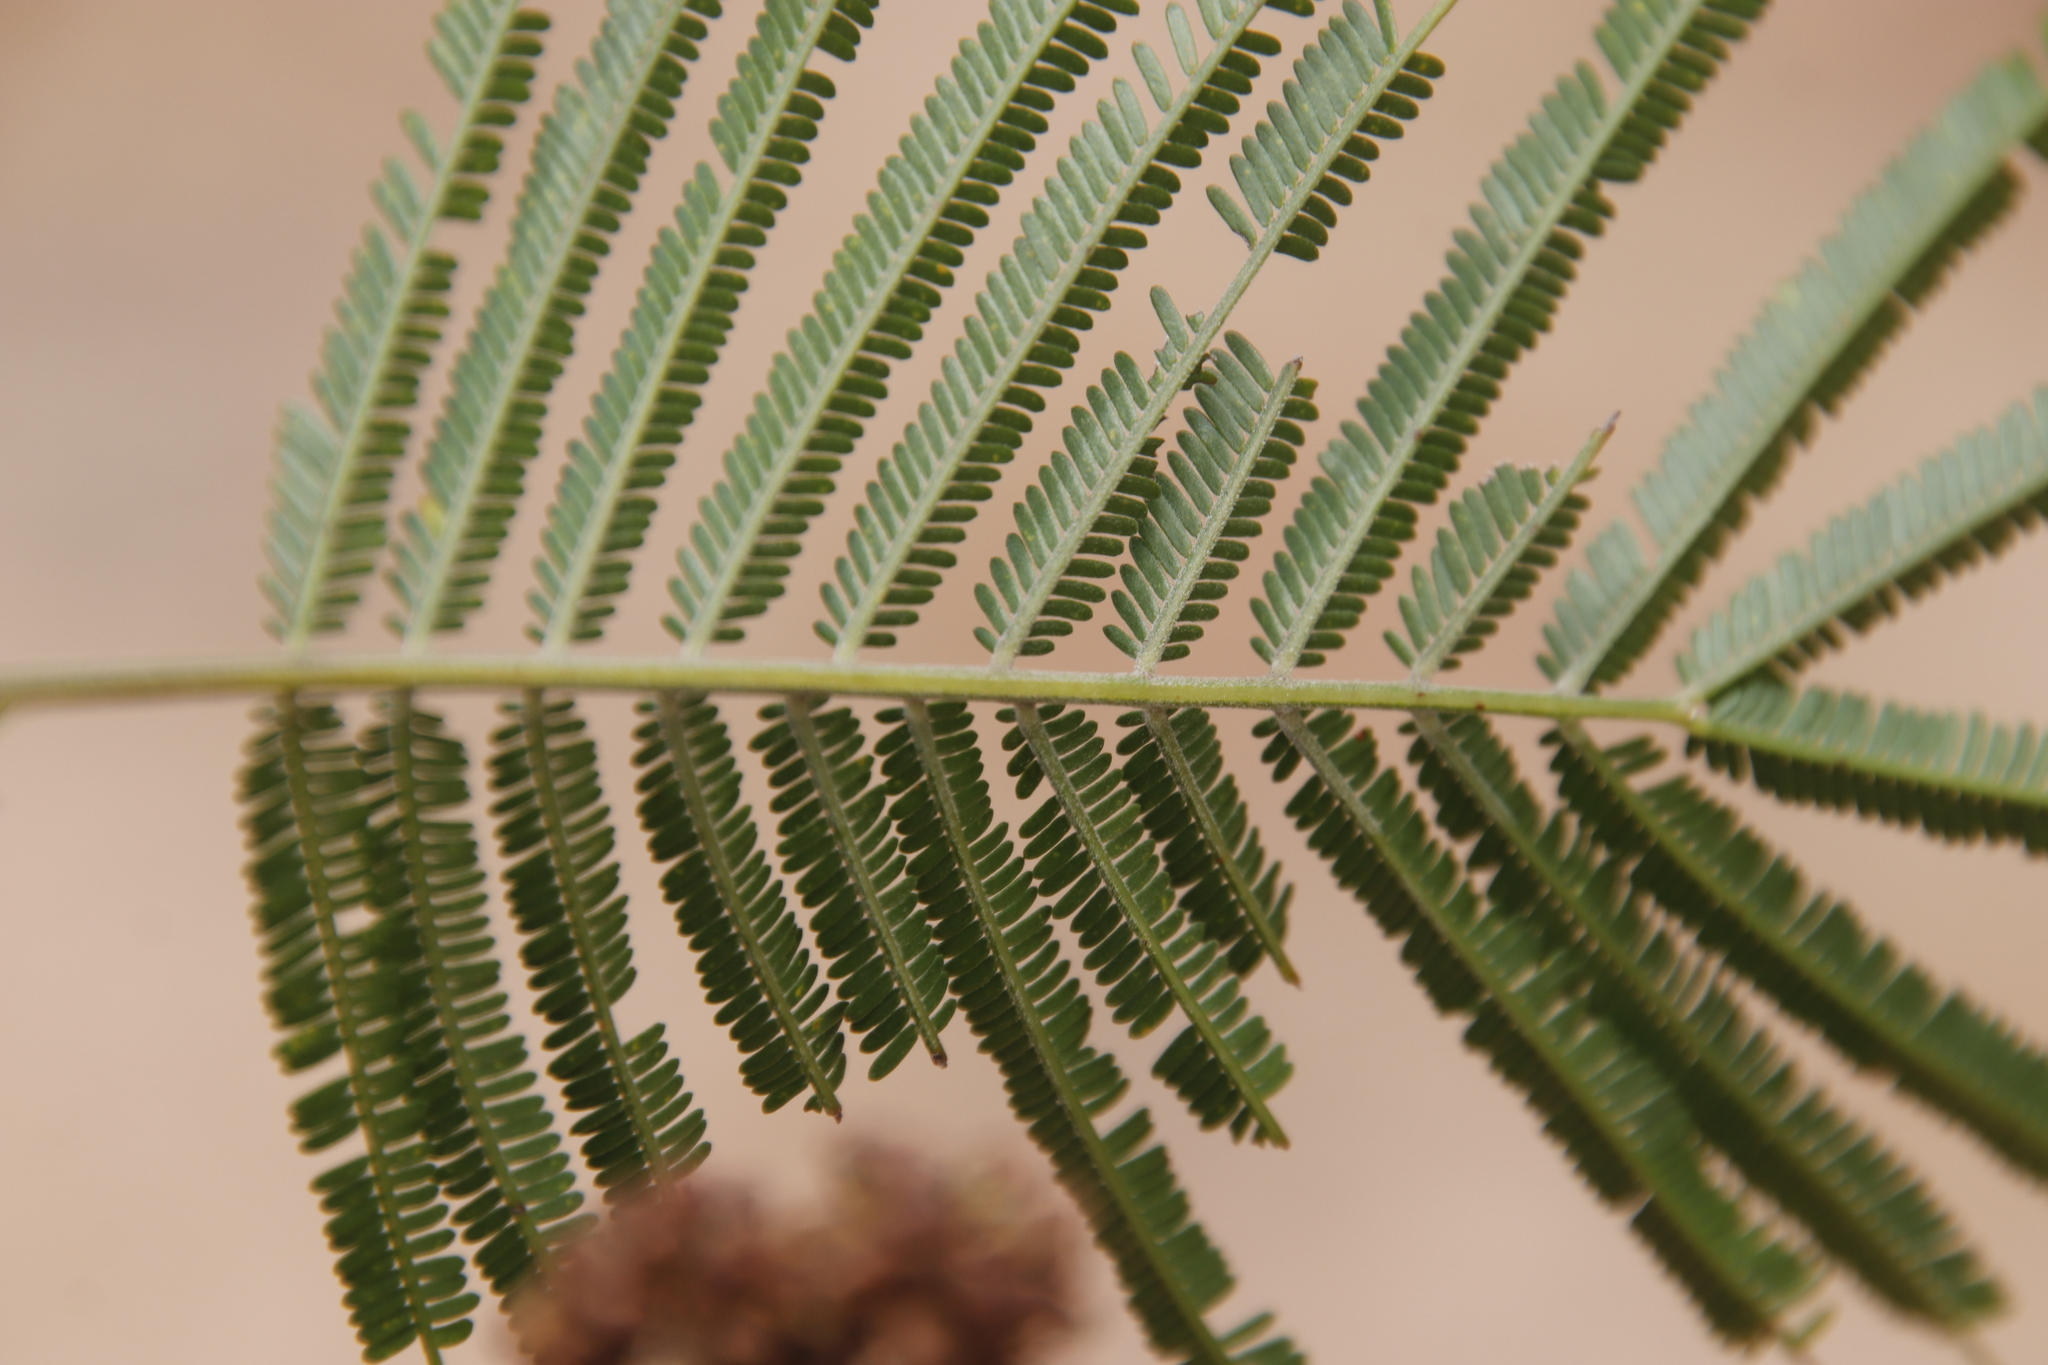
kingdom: Plantae
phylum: Tracheophyta
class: Magnoliopsida
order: Fabales
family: Fabaceae
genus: Acacia
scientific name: Acacia mearnsii
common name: Black wattle
